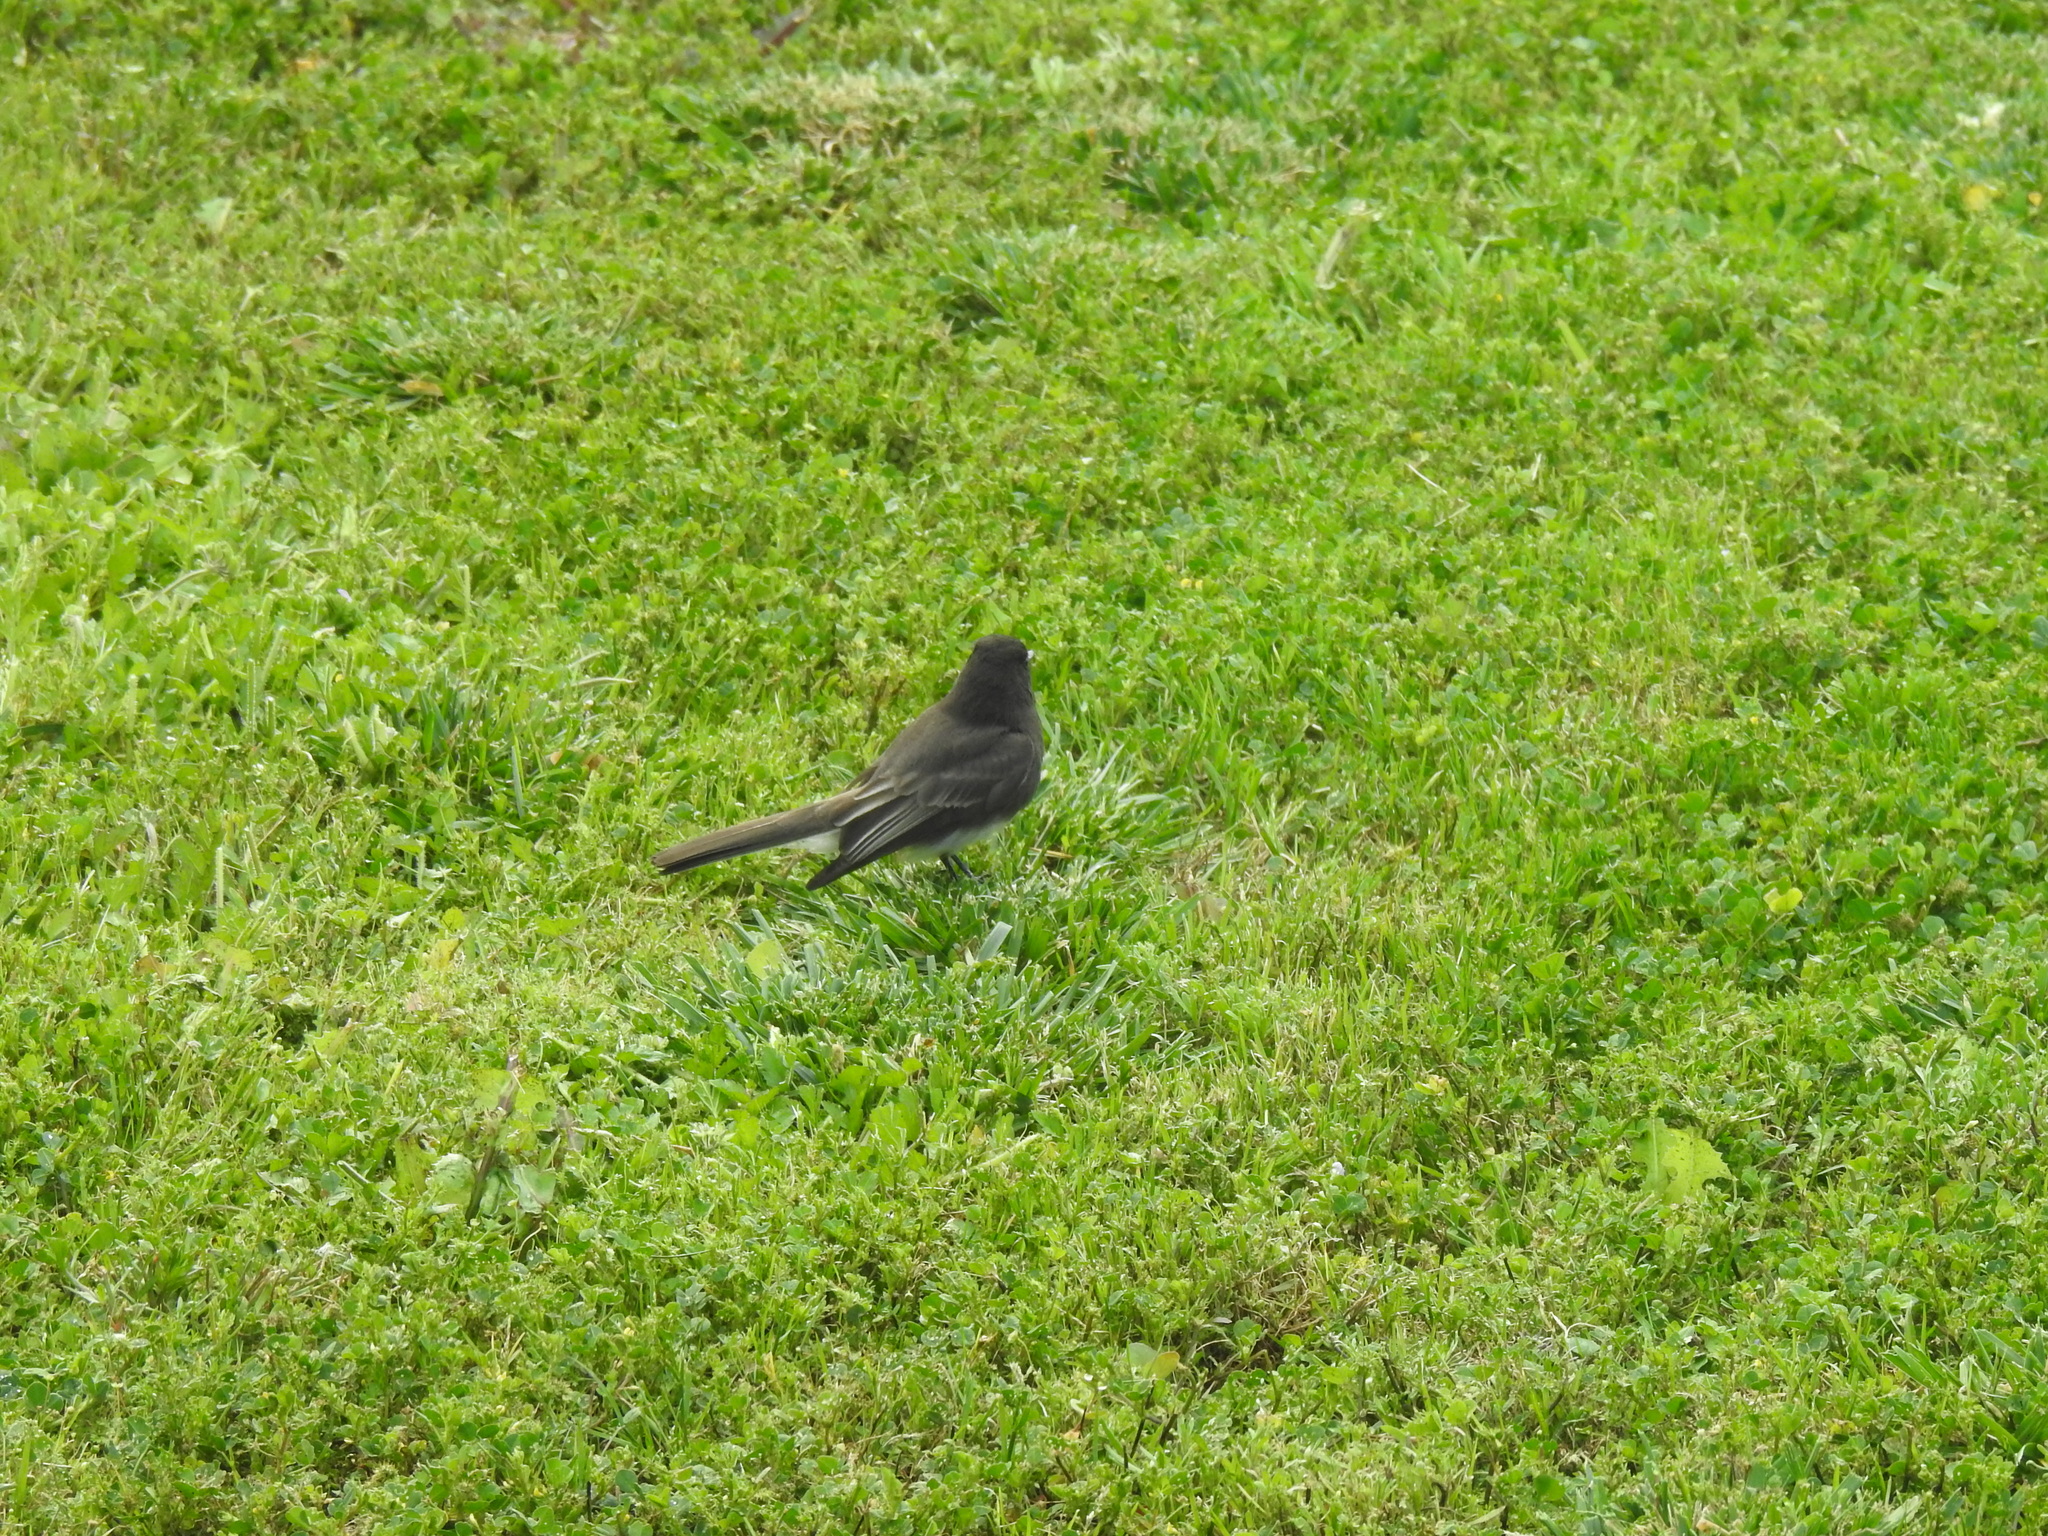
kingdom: Animalia
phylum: Chordata
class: Aves
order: Passeriformes
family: Tyrannidae
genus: Sayornis
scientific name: Sayornis nigricans
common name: Black phoebe
